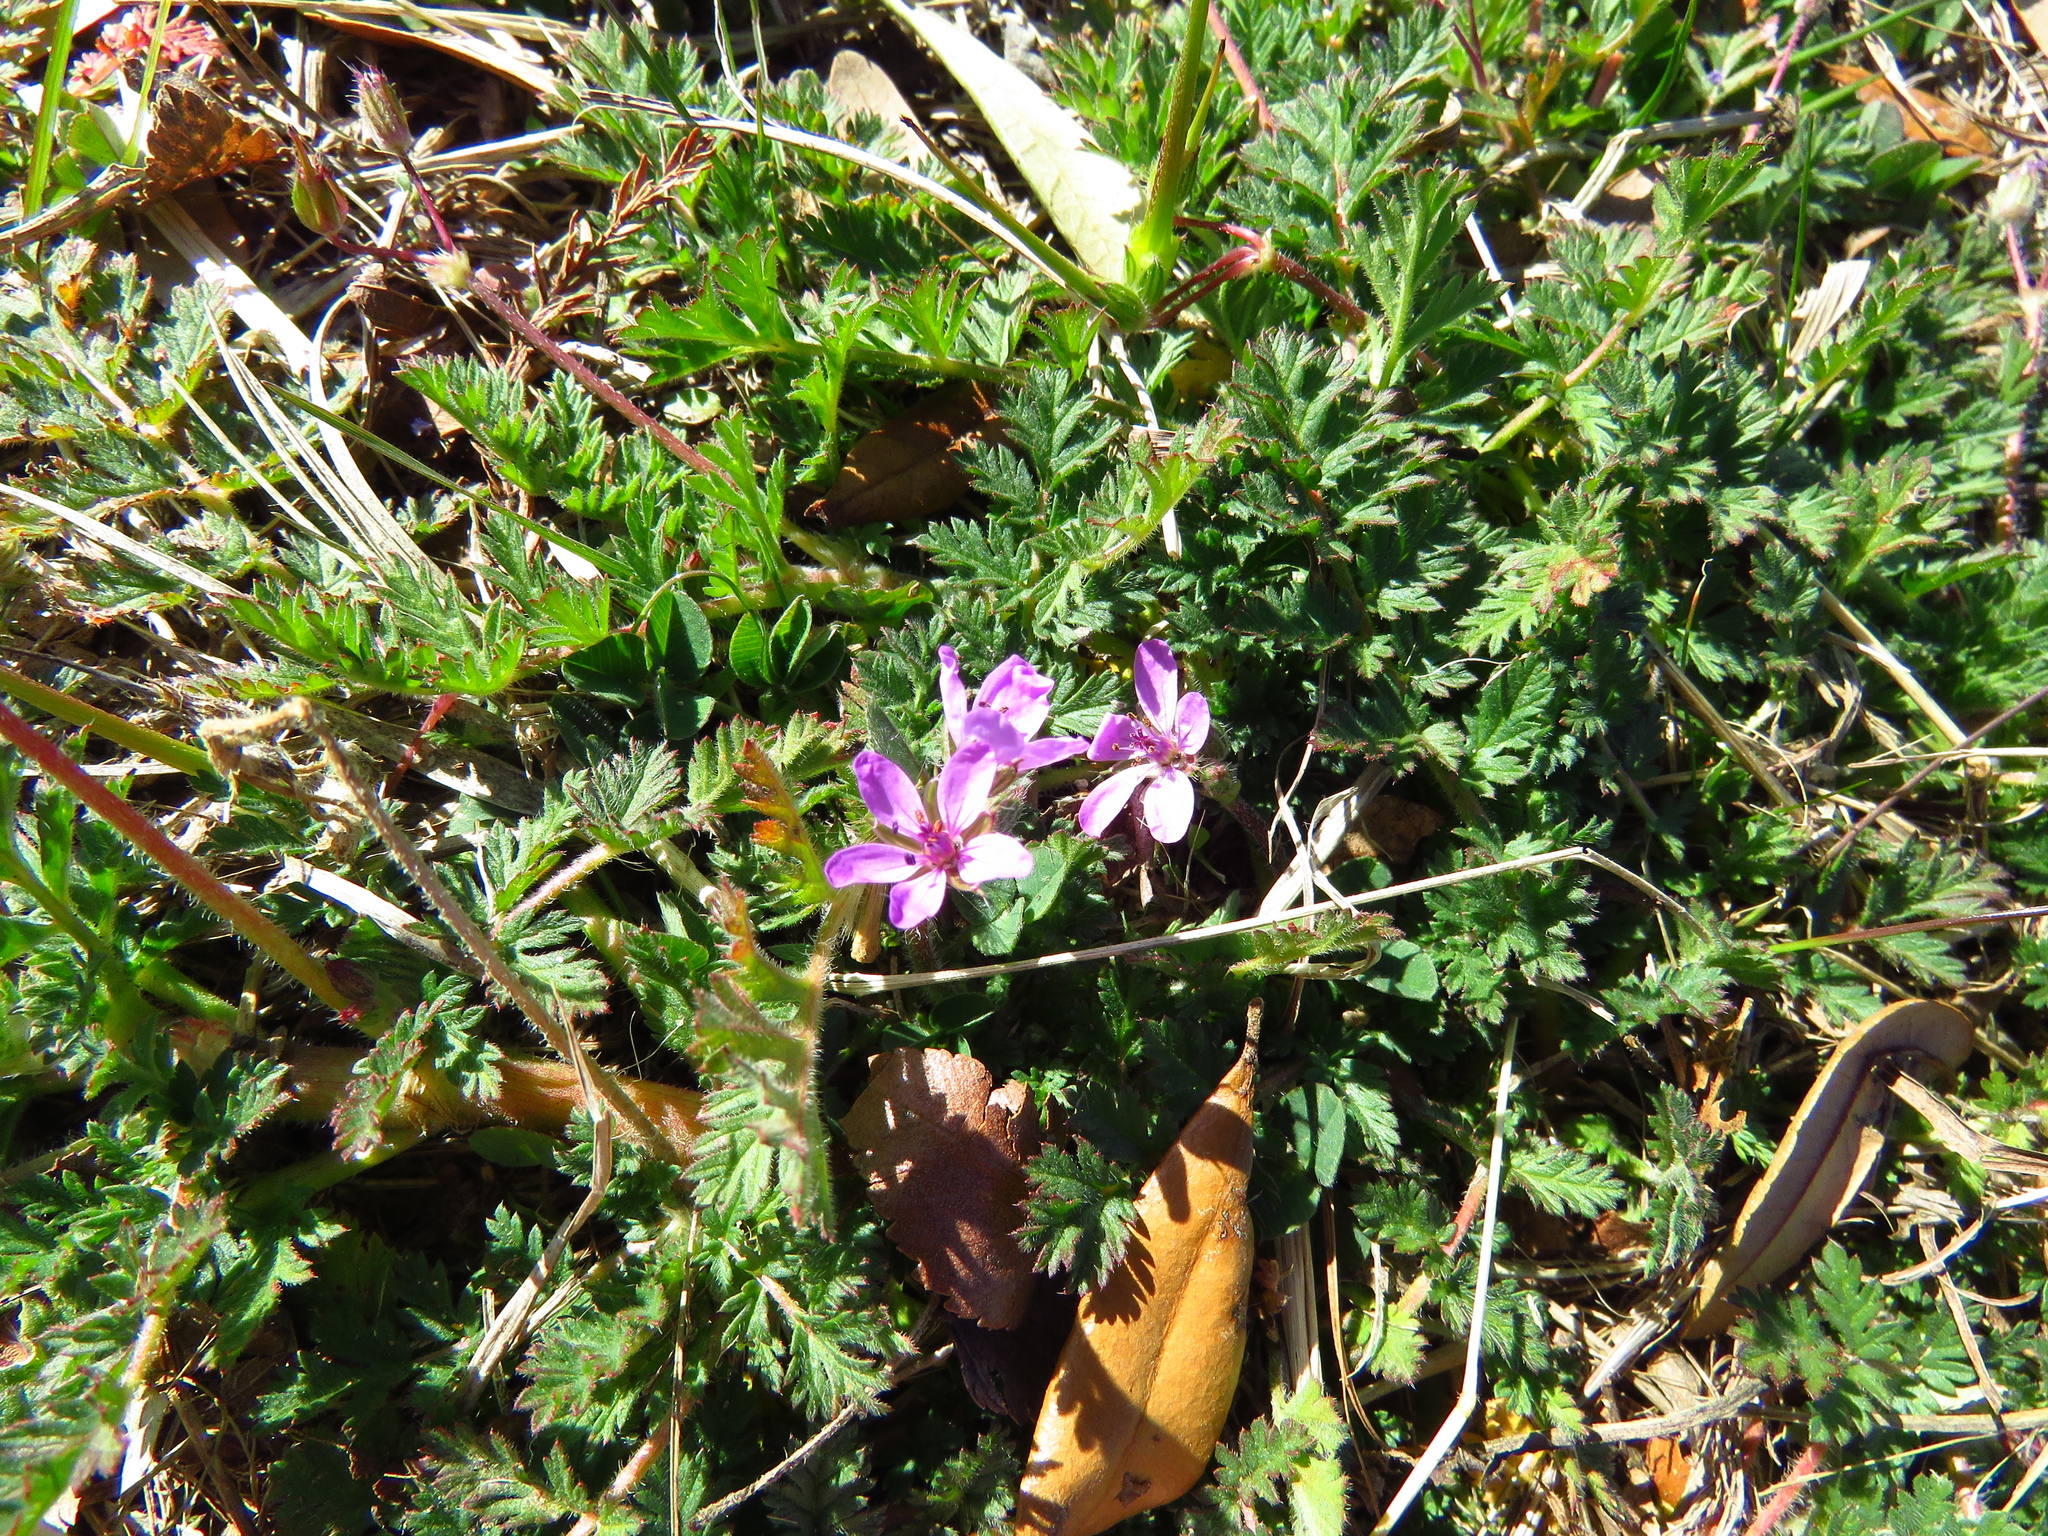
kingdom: Plantae
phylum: Tracheophyta
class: Magnoliopsida
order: Geraniales
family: Geraniaceae
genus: Erodium
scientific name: Erodium cicutarium
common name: Common stork's-bill
